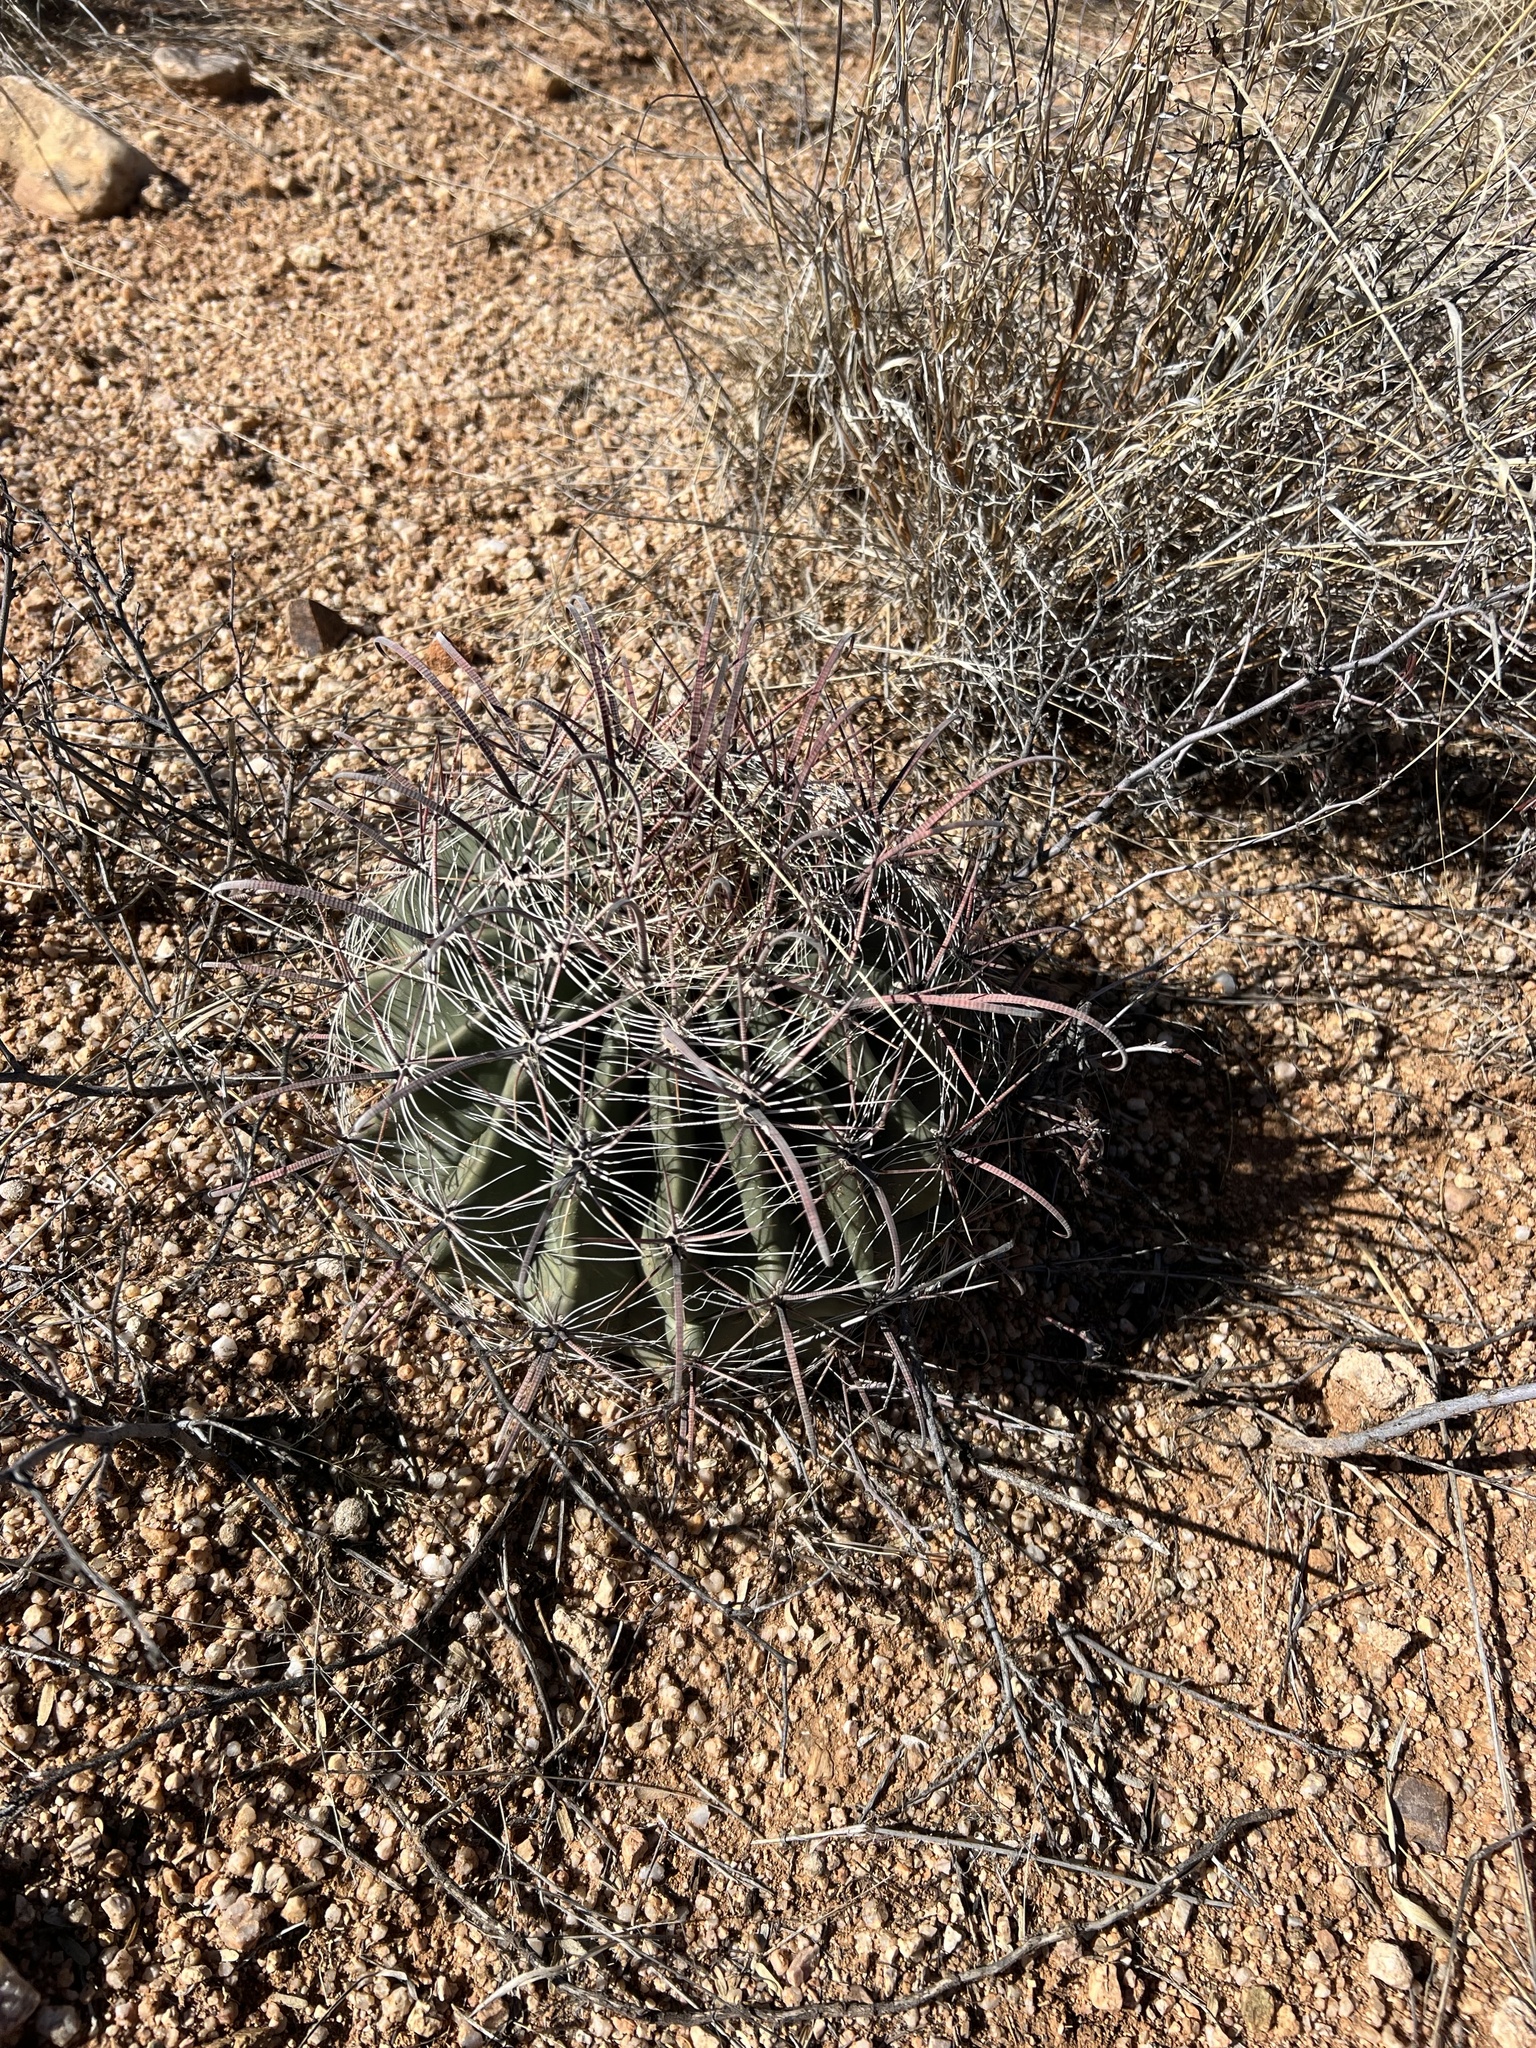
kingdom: Plantae
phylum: Tracheophyta
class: Magnoliopsida
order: Caryophyllales
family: Cactaceae
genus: Ferocactus
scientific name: Ferocactus wislizeni
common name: Candy barrel cactus
